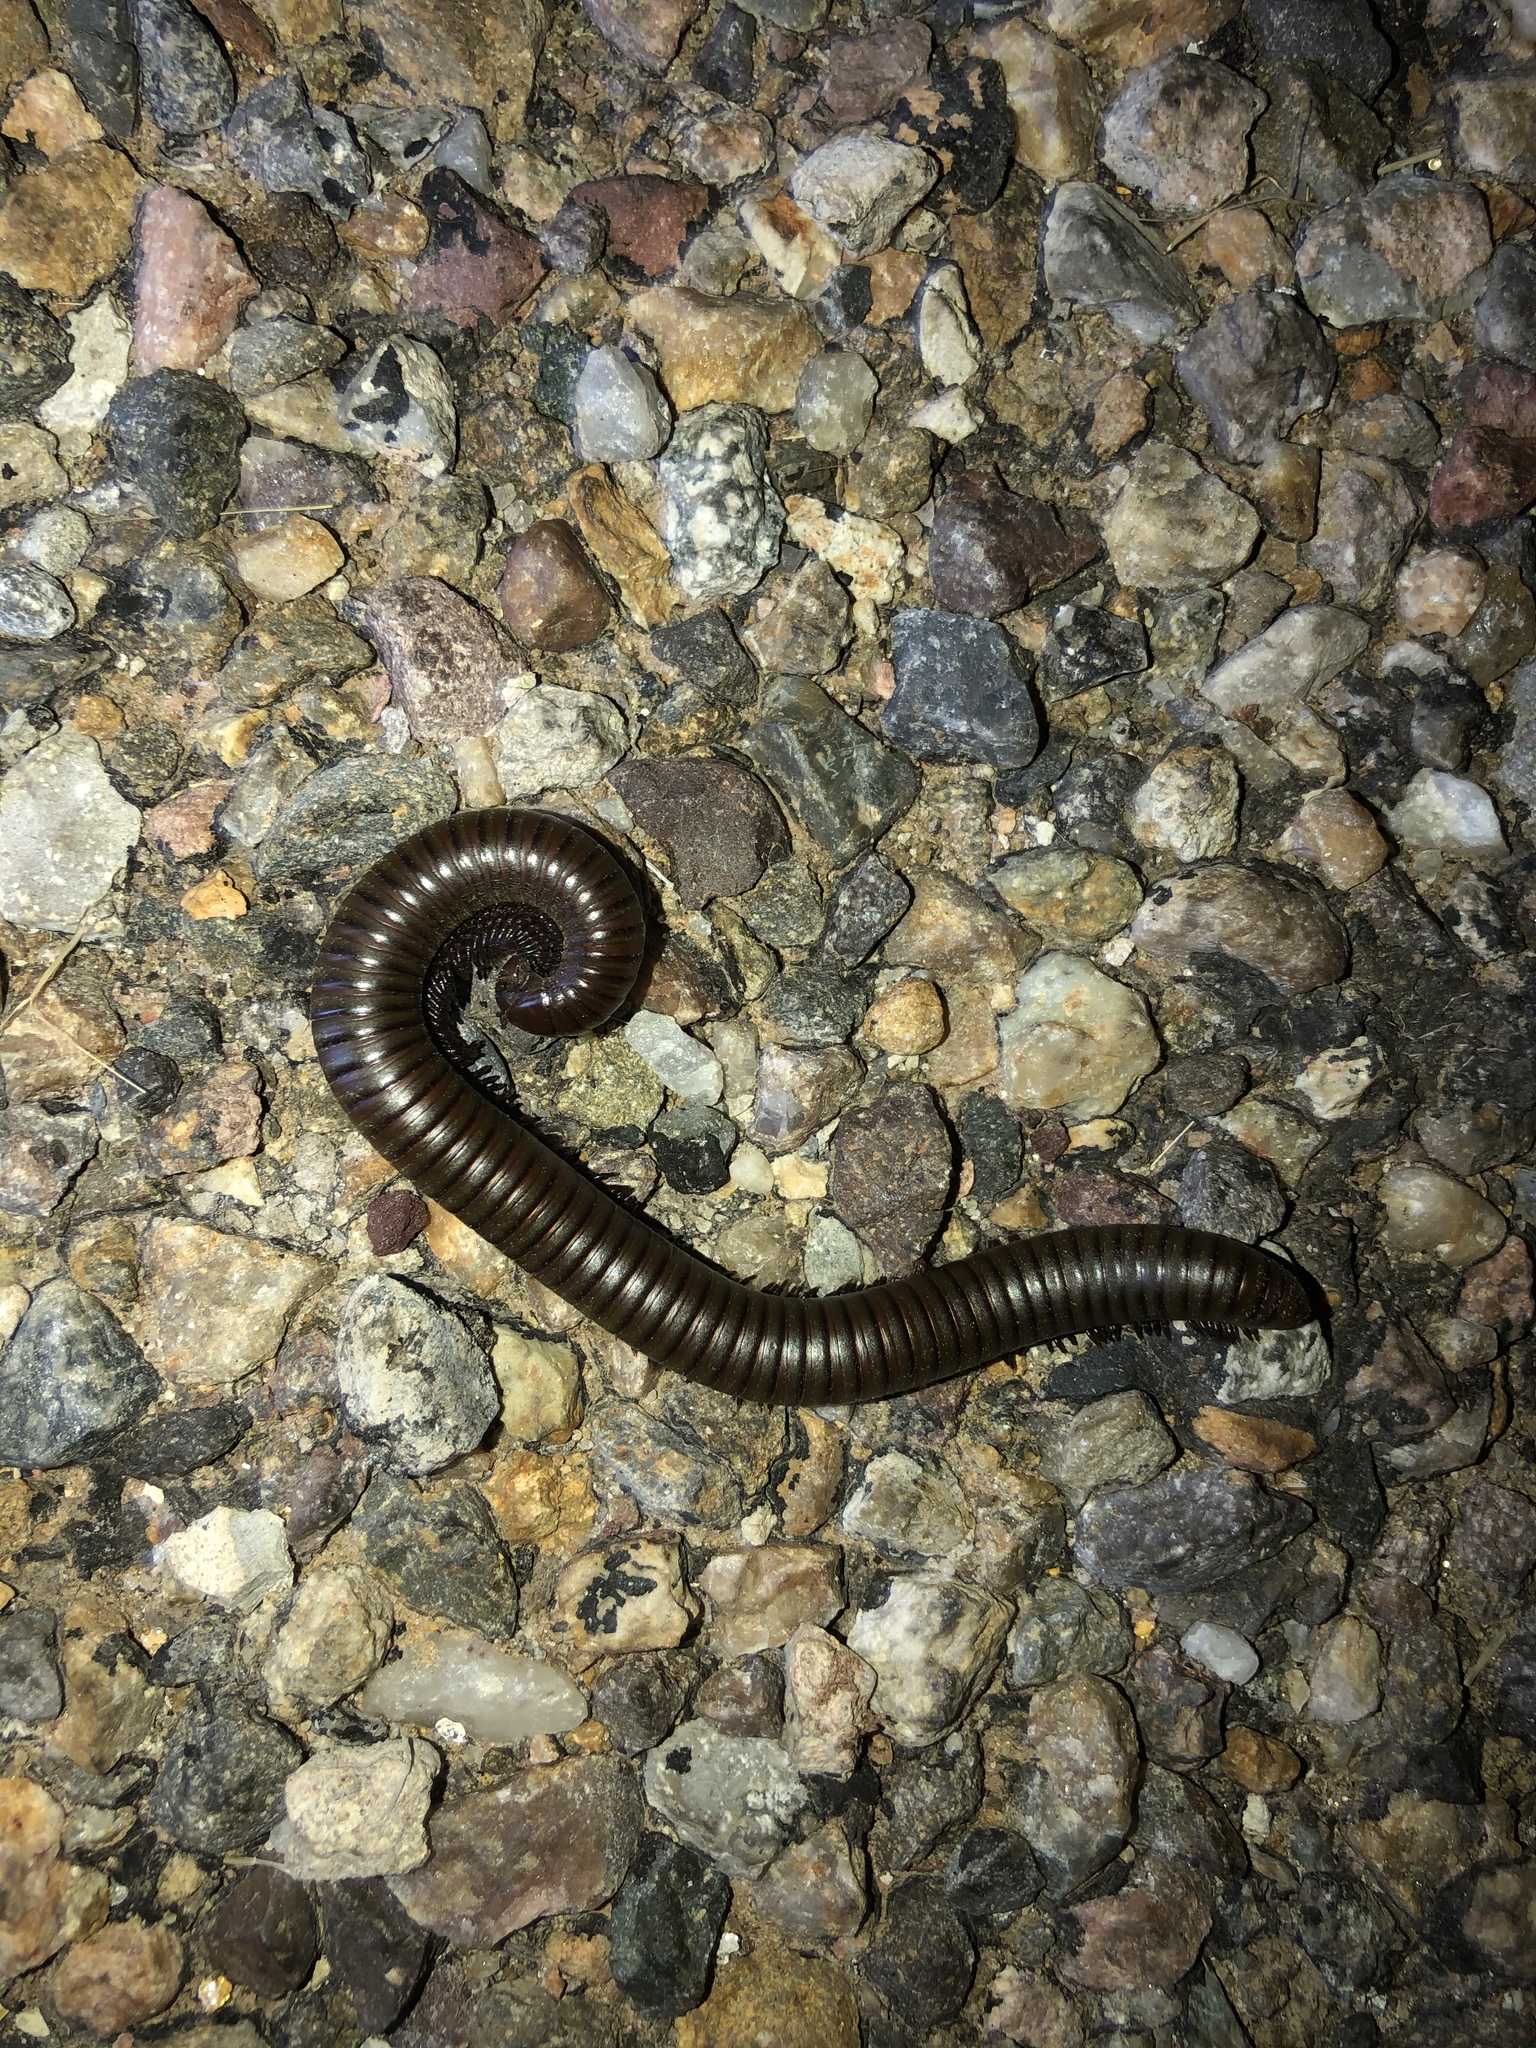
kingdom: Animalia
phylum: Arthropoda
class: Diplopoda
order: Spirostreptida
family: Spirostreptidae
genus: Orthoporus
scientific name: Orthoporus ornatus
